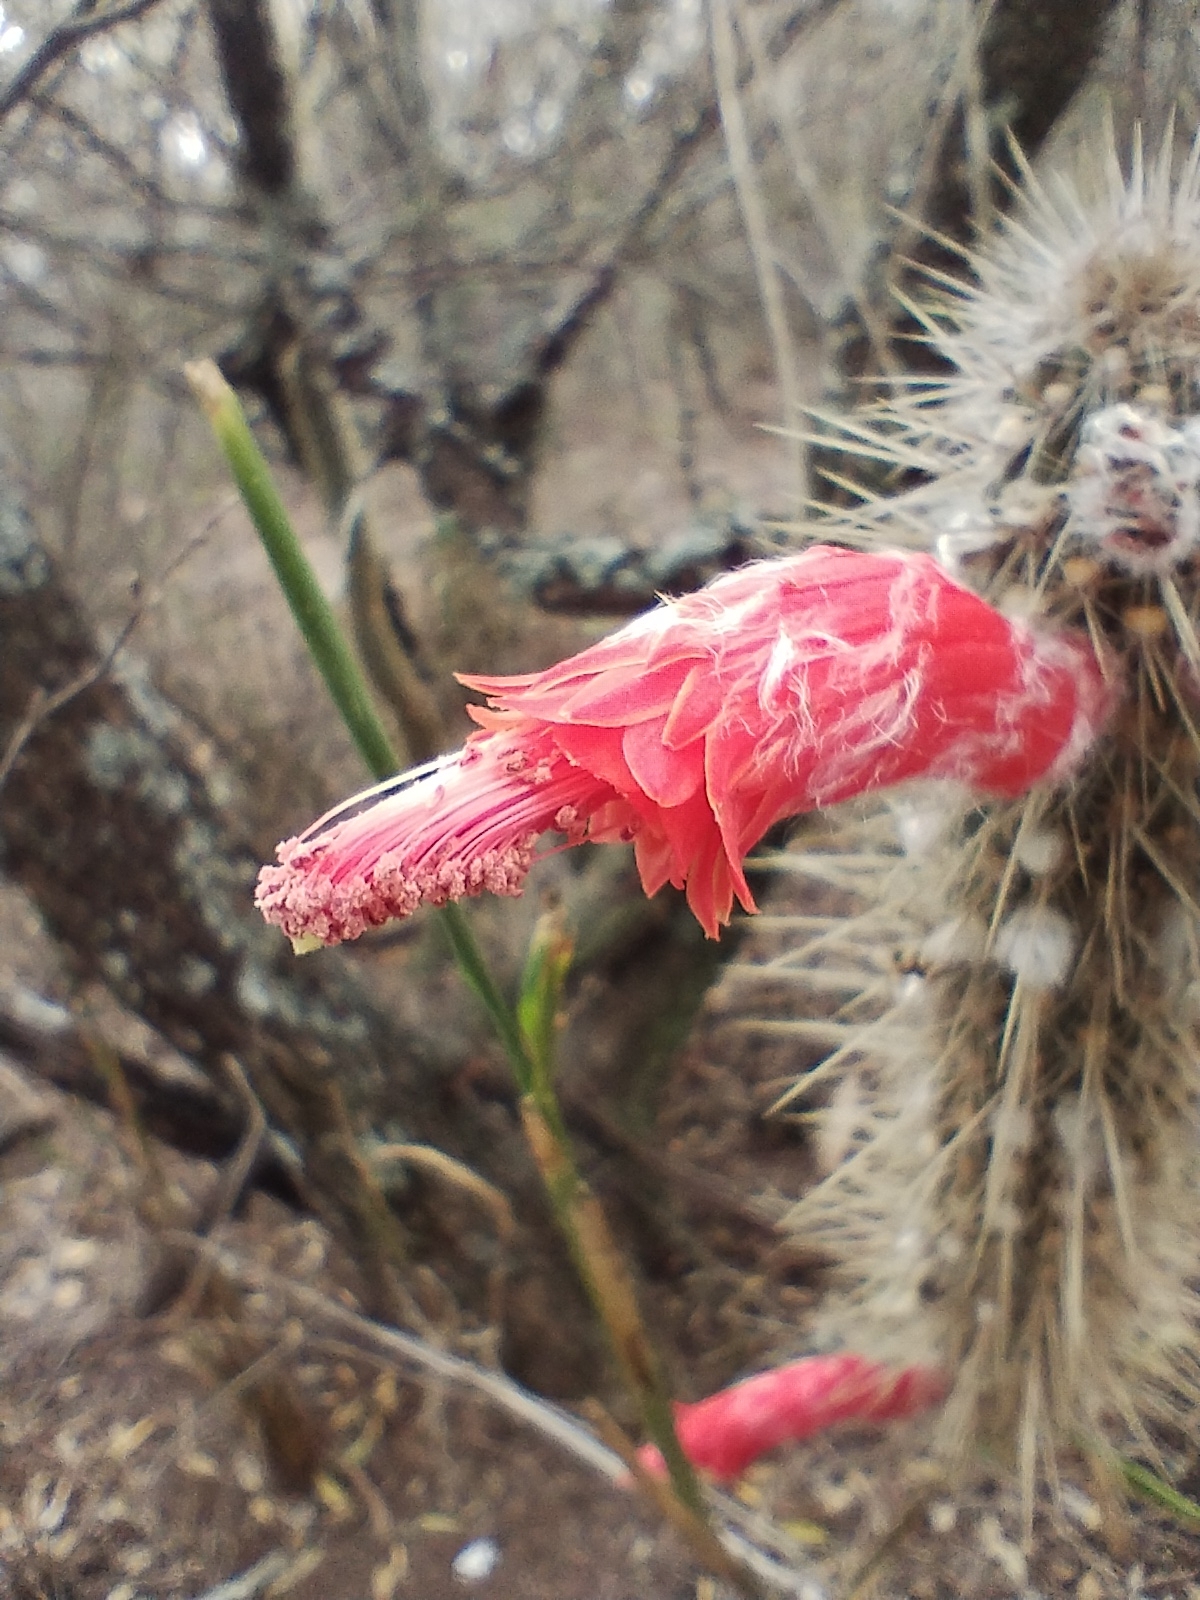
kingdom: Plantae
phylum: Tracheophyta
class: Magnoliopsida
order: Caryophyllales
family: Cactaceae
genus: Cleistocactus
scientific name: Cleistocactus baumannii
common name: Scarlet-bugler
